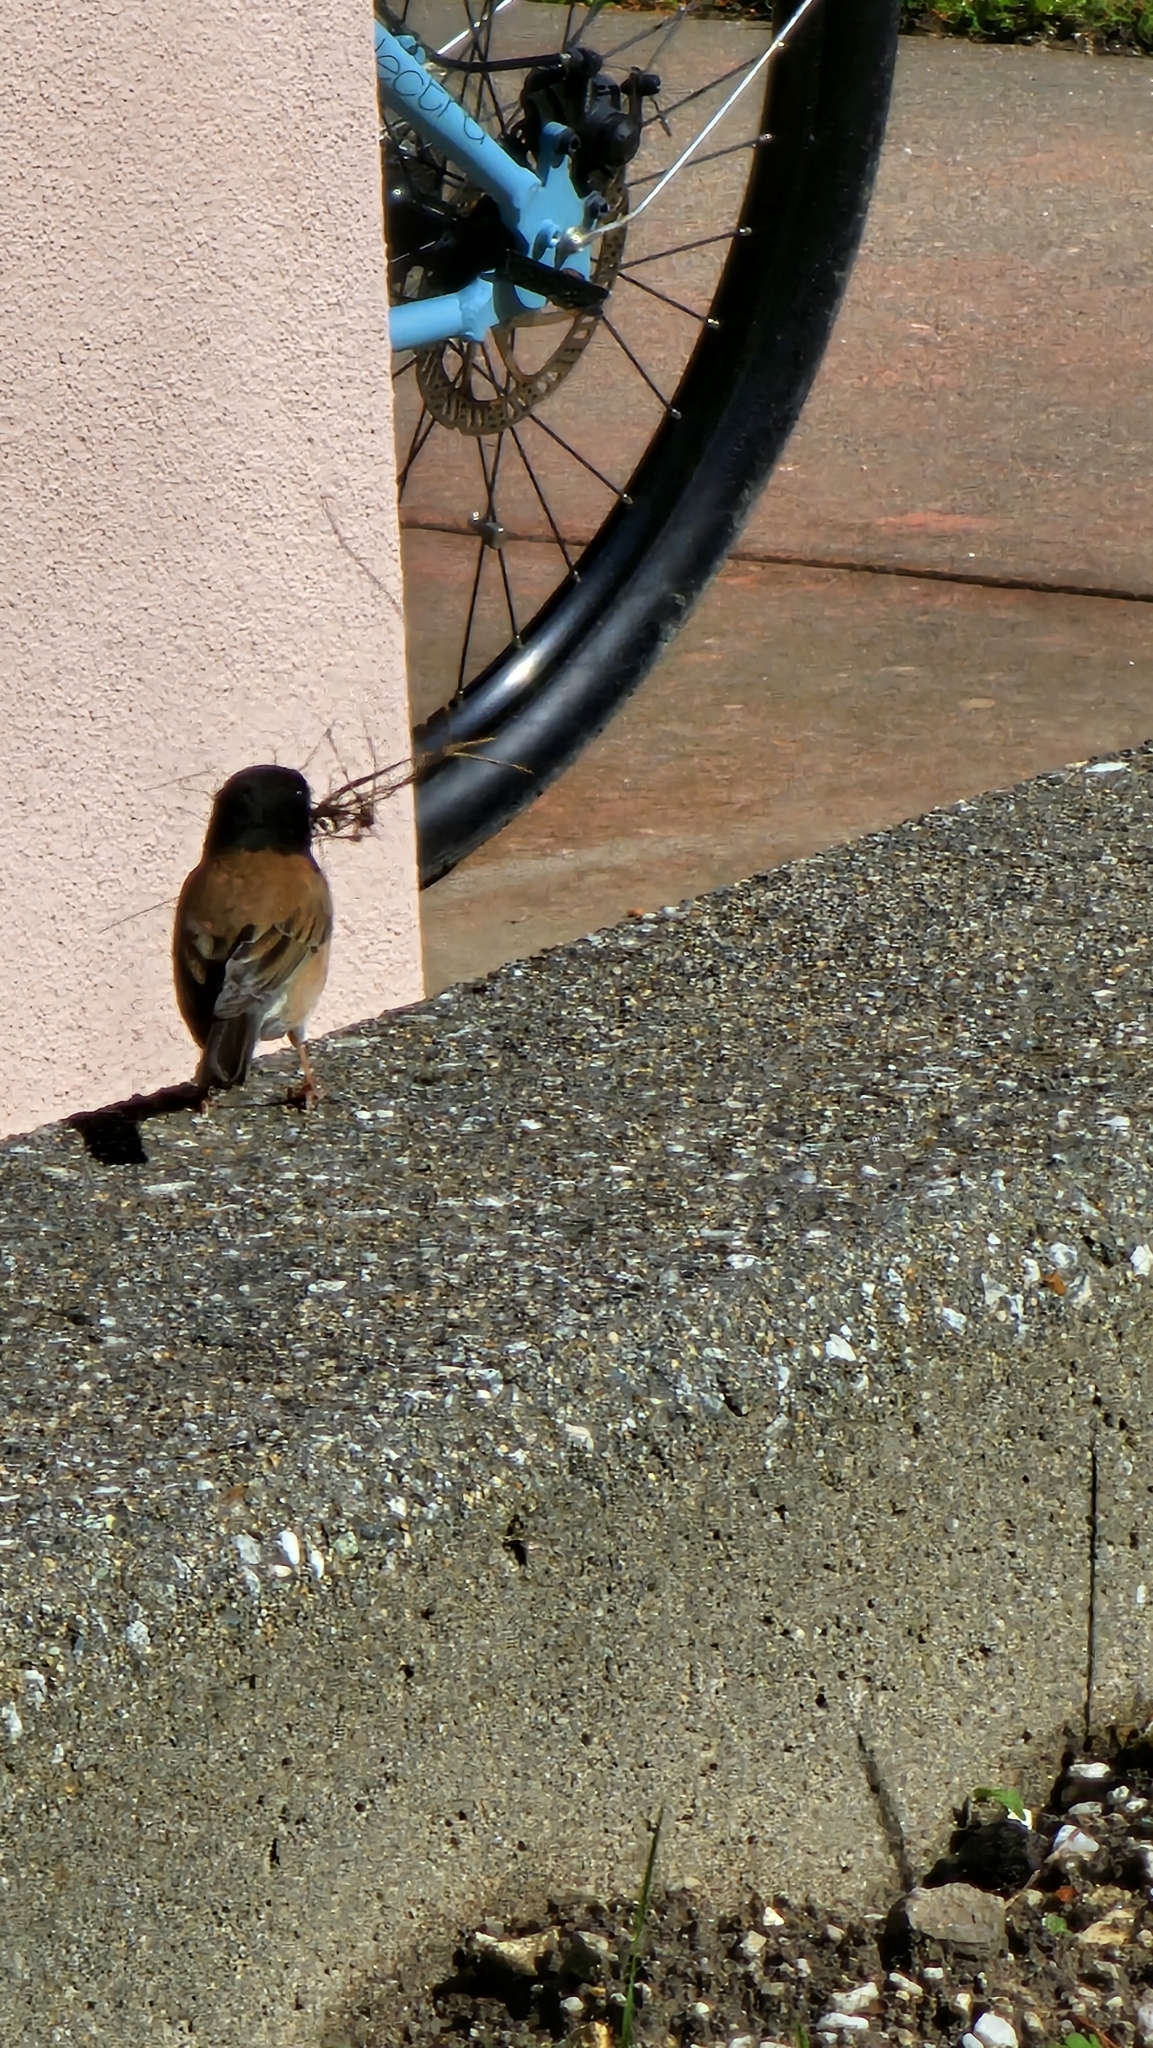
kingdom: Animalia
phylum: Chordata
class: Aves
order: Passeriformes
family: Passerellidae
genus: Junco
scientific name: Junco hyemalis
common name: Dark-eyed junco
